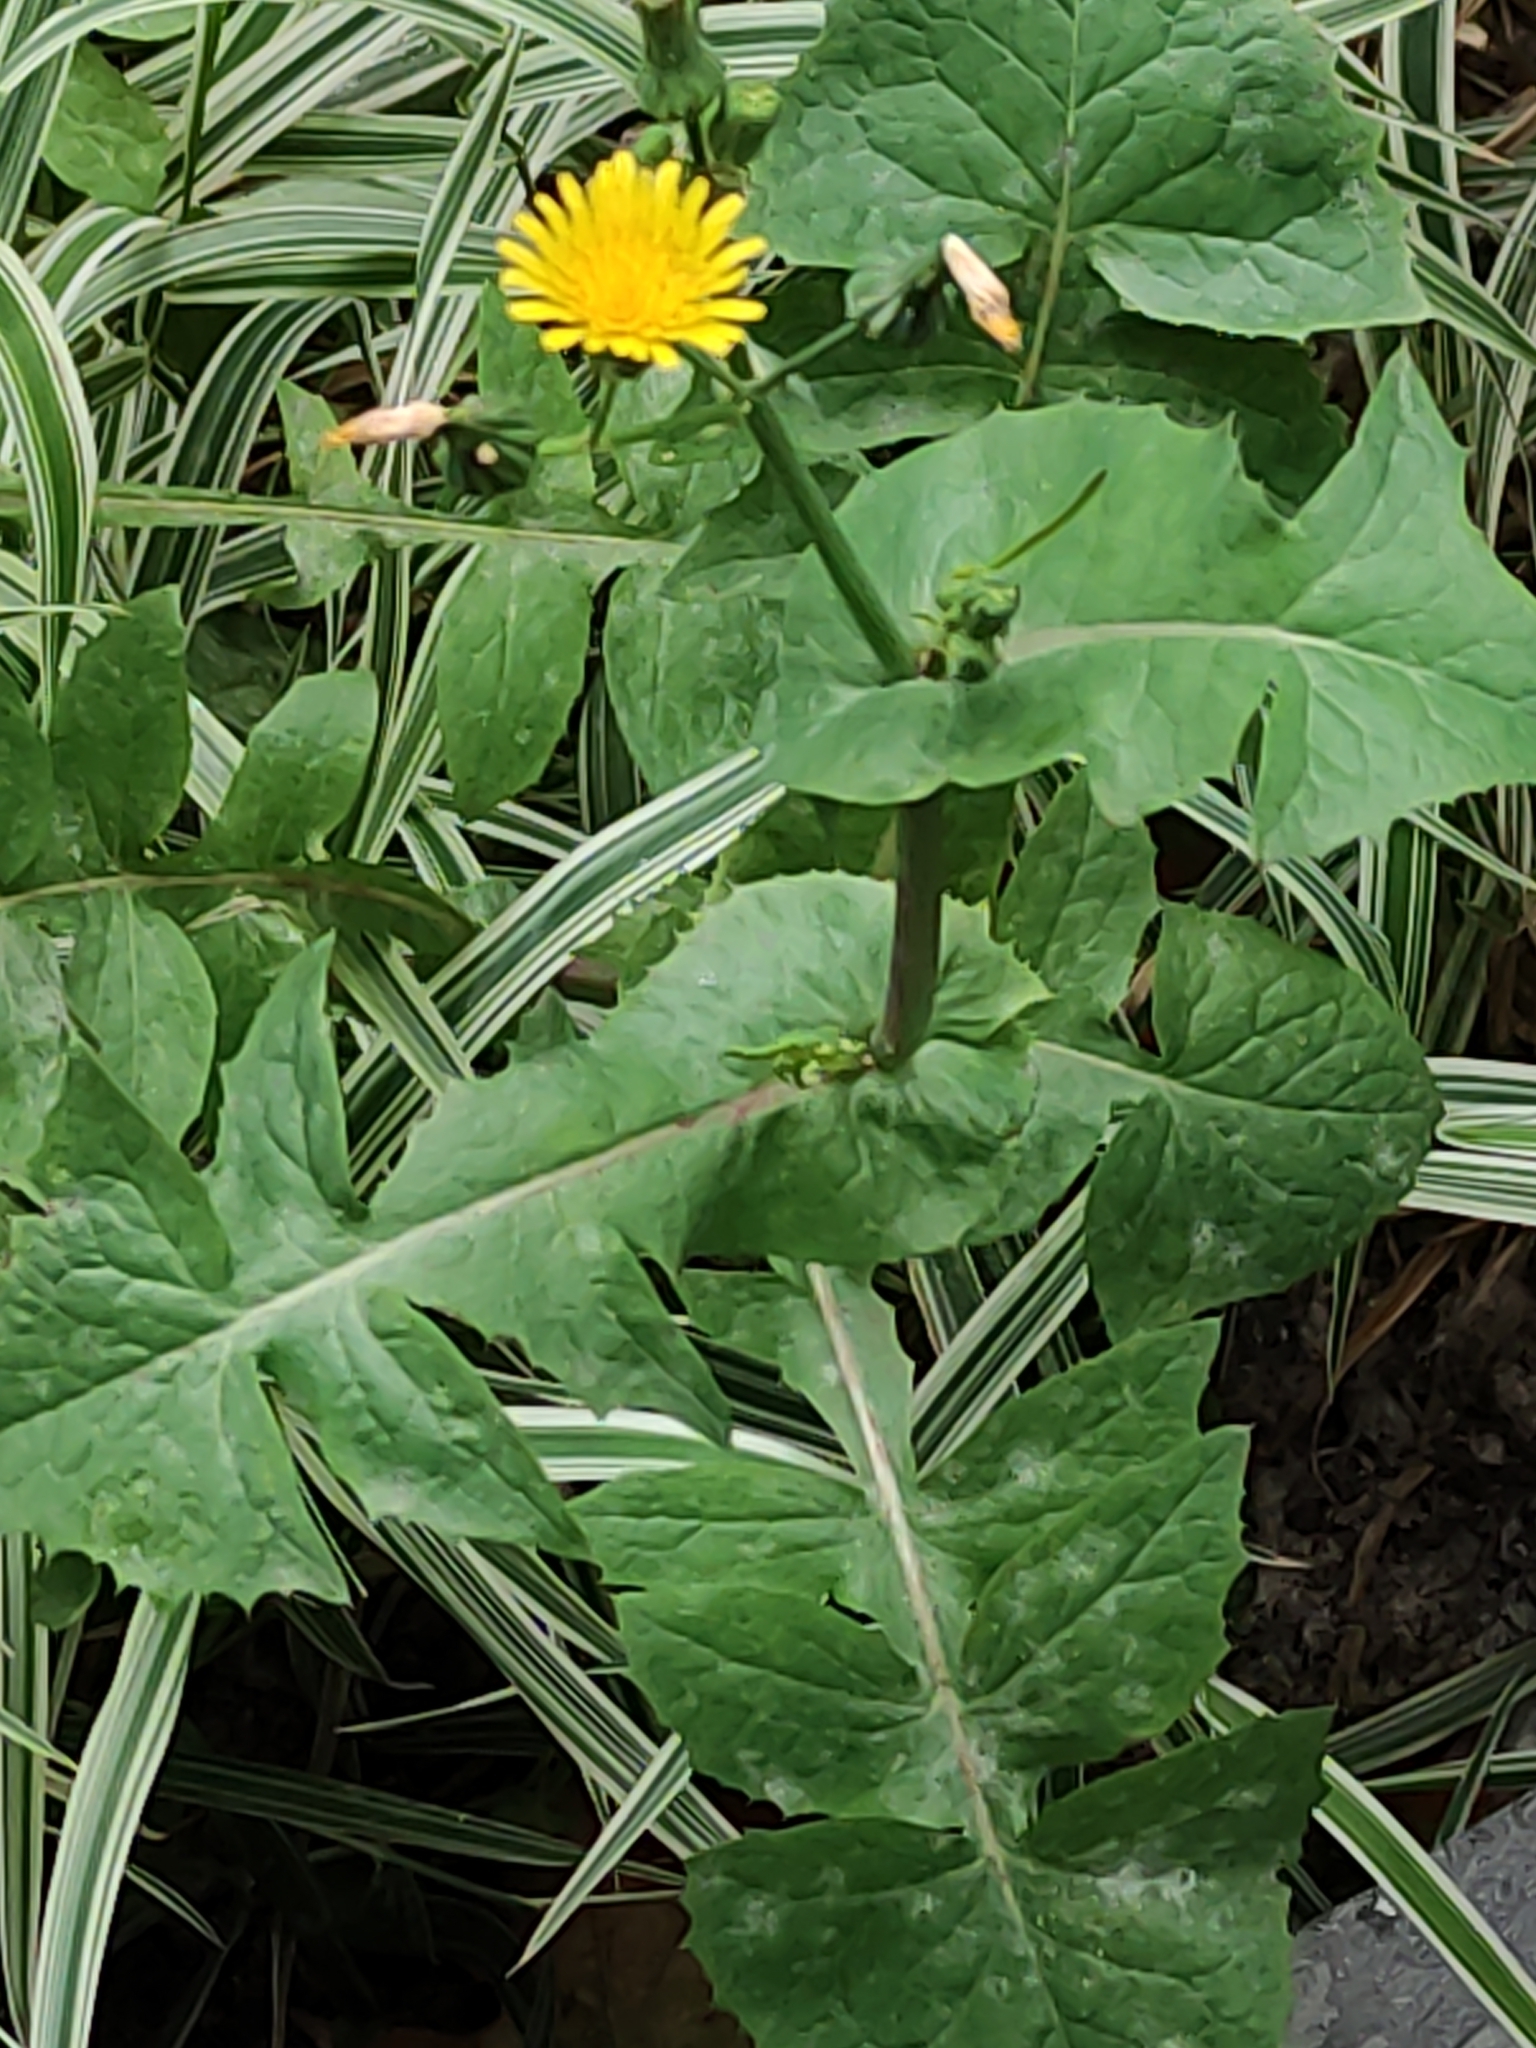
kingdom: Plantae
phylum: Tracheophyta
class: Magnoliopsida
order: Asterales
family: Asteraceae
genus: Sonchus
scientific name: Sonchus oleraceus
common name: Common sowthistle
